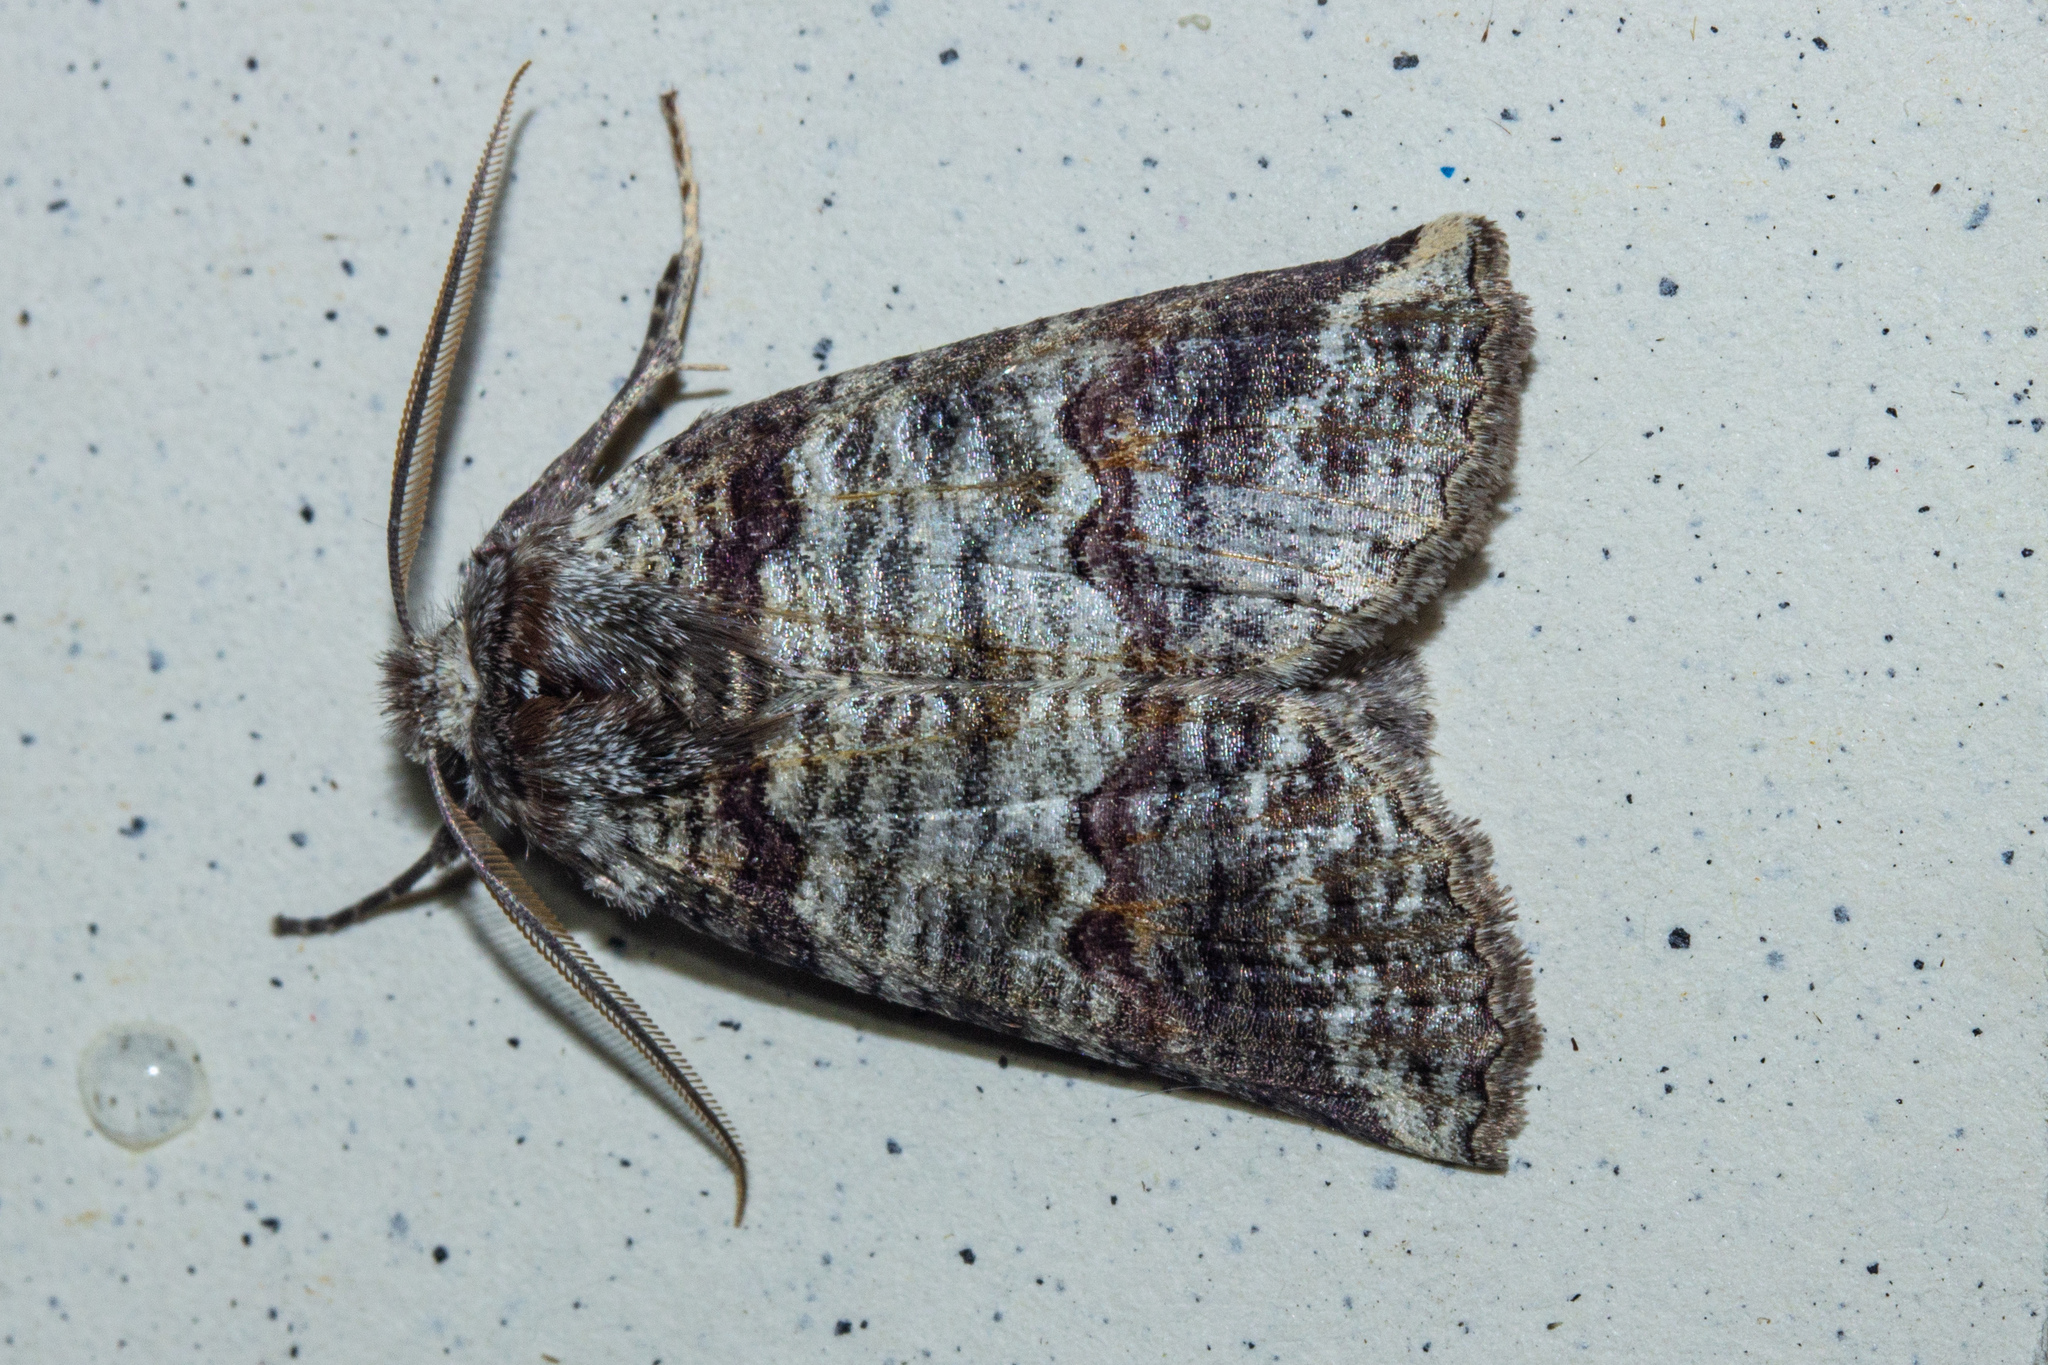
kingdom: Animalia
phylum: Arthropoda
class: Insecta
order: Lepidoptera
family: Geometridae
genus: Declana
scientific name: Declana
